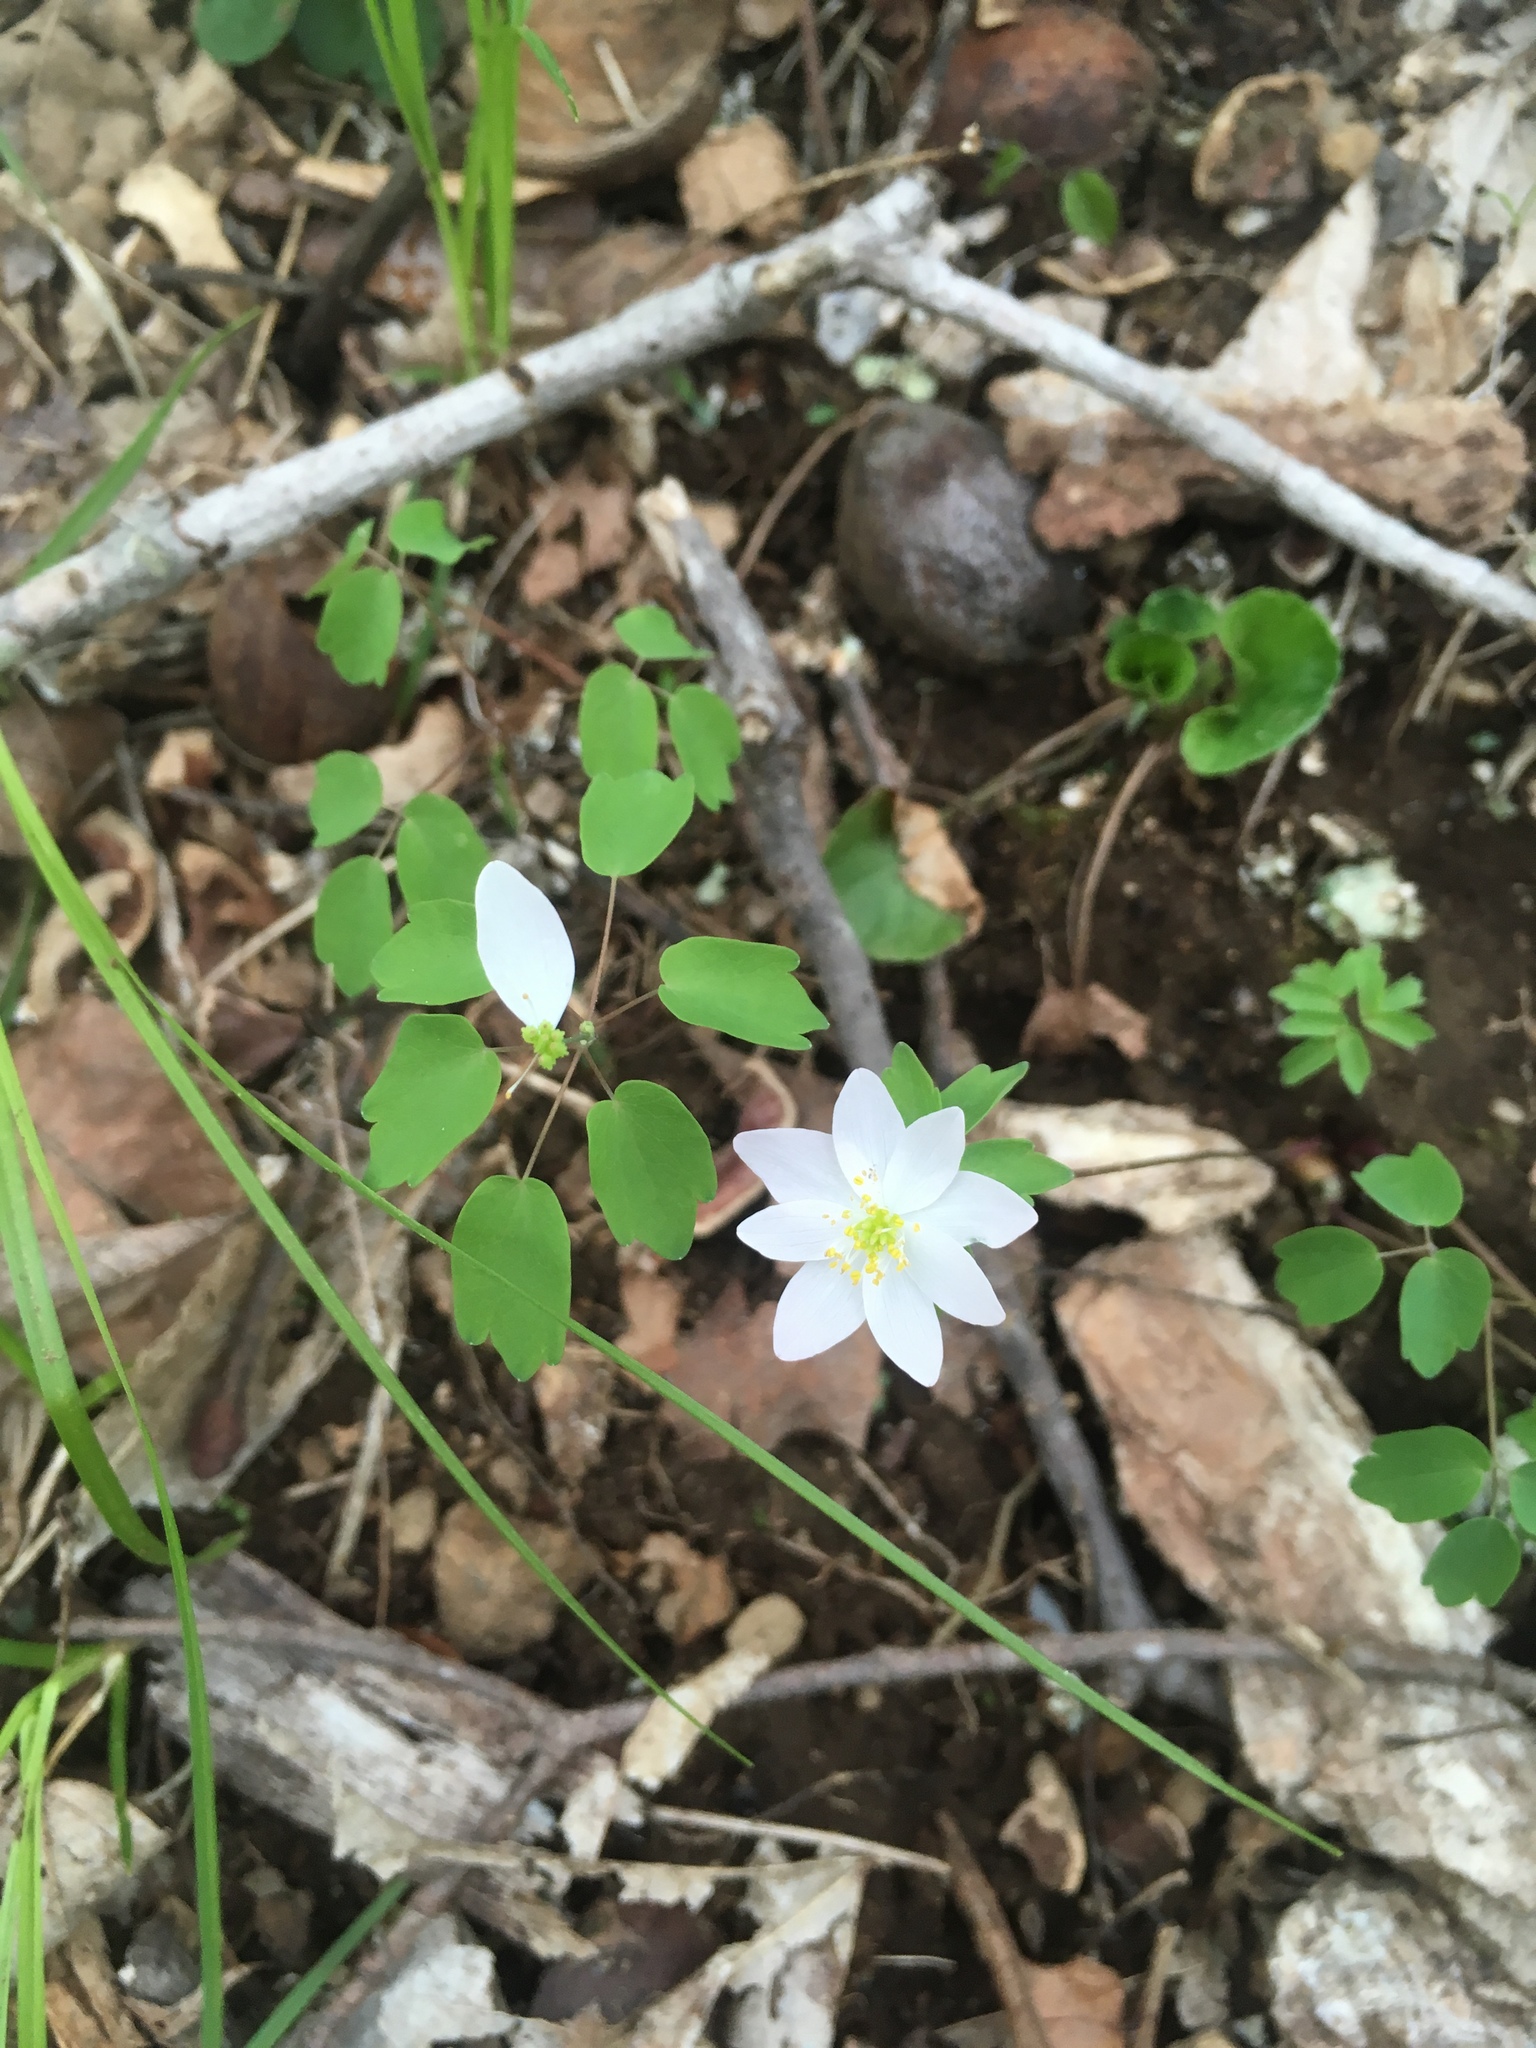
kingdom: Plantae
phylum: Tracheophyta
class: Magnoliopsida
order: Ranunculales
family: Ranunculaceae
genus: Thalictrum
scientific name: Thalictrum thalictroides
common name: Rue-anemone
